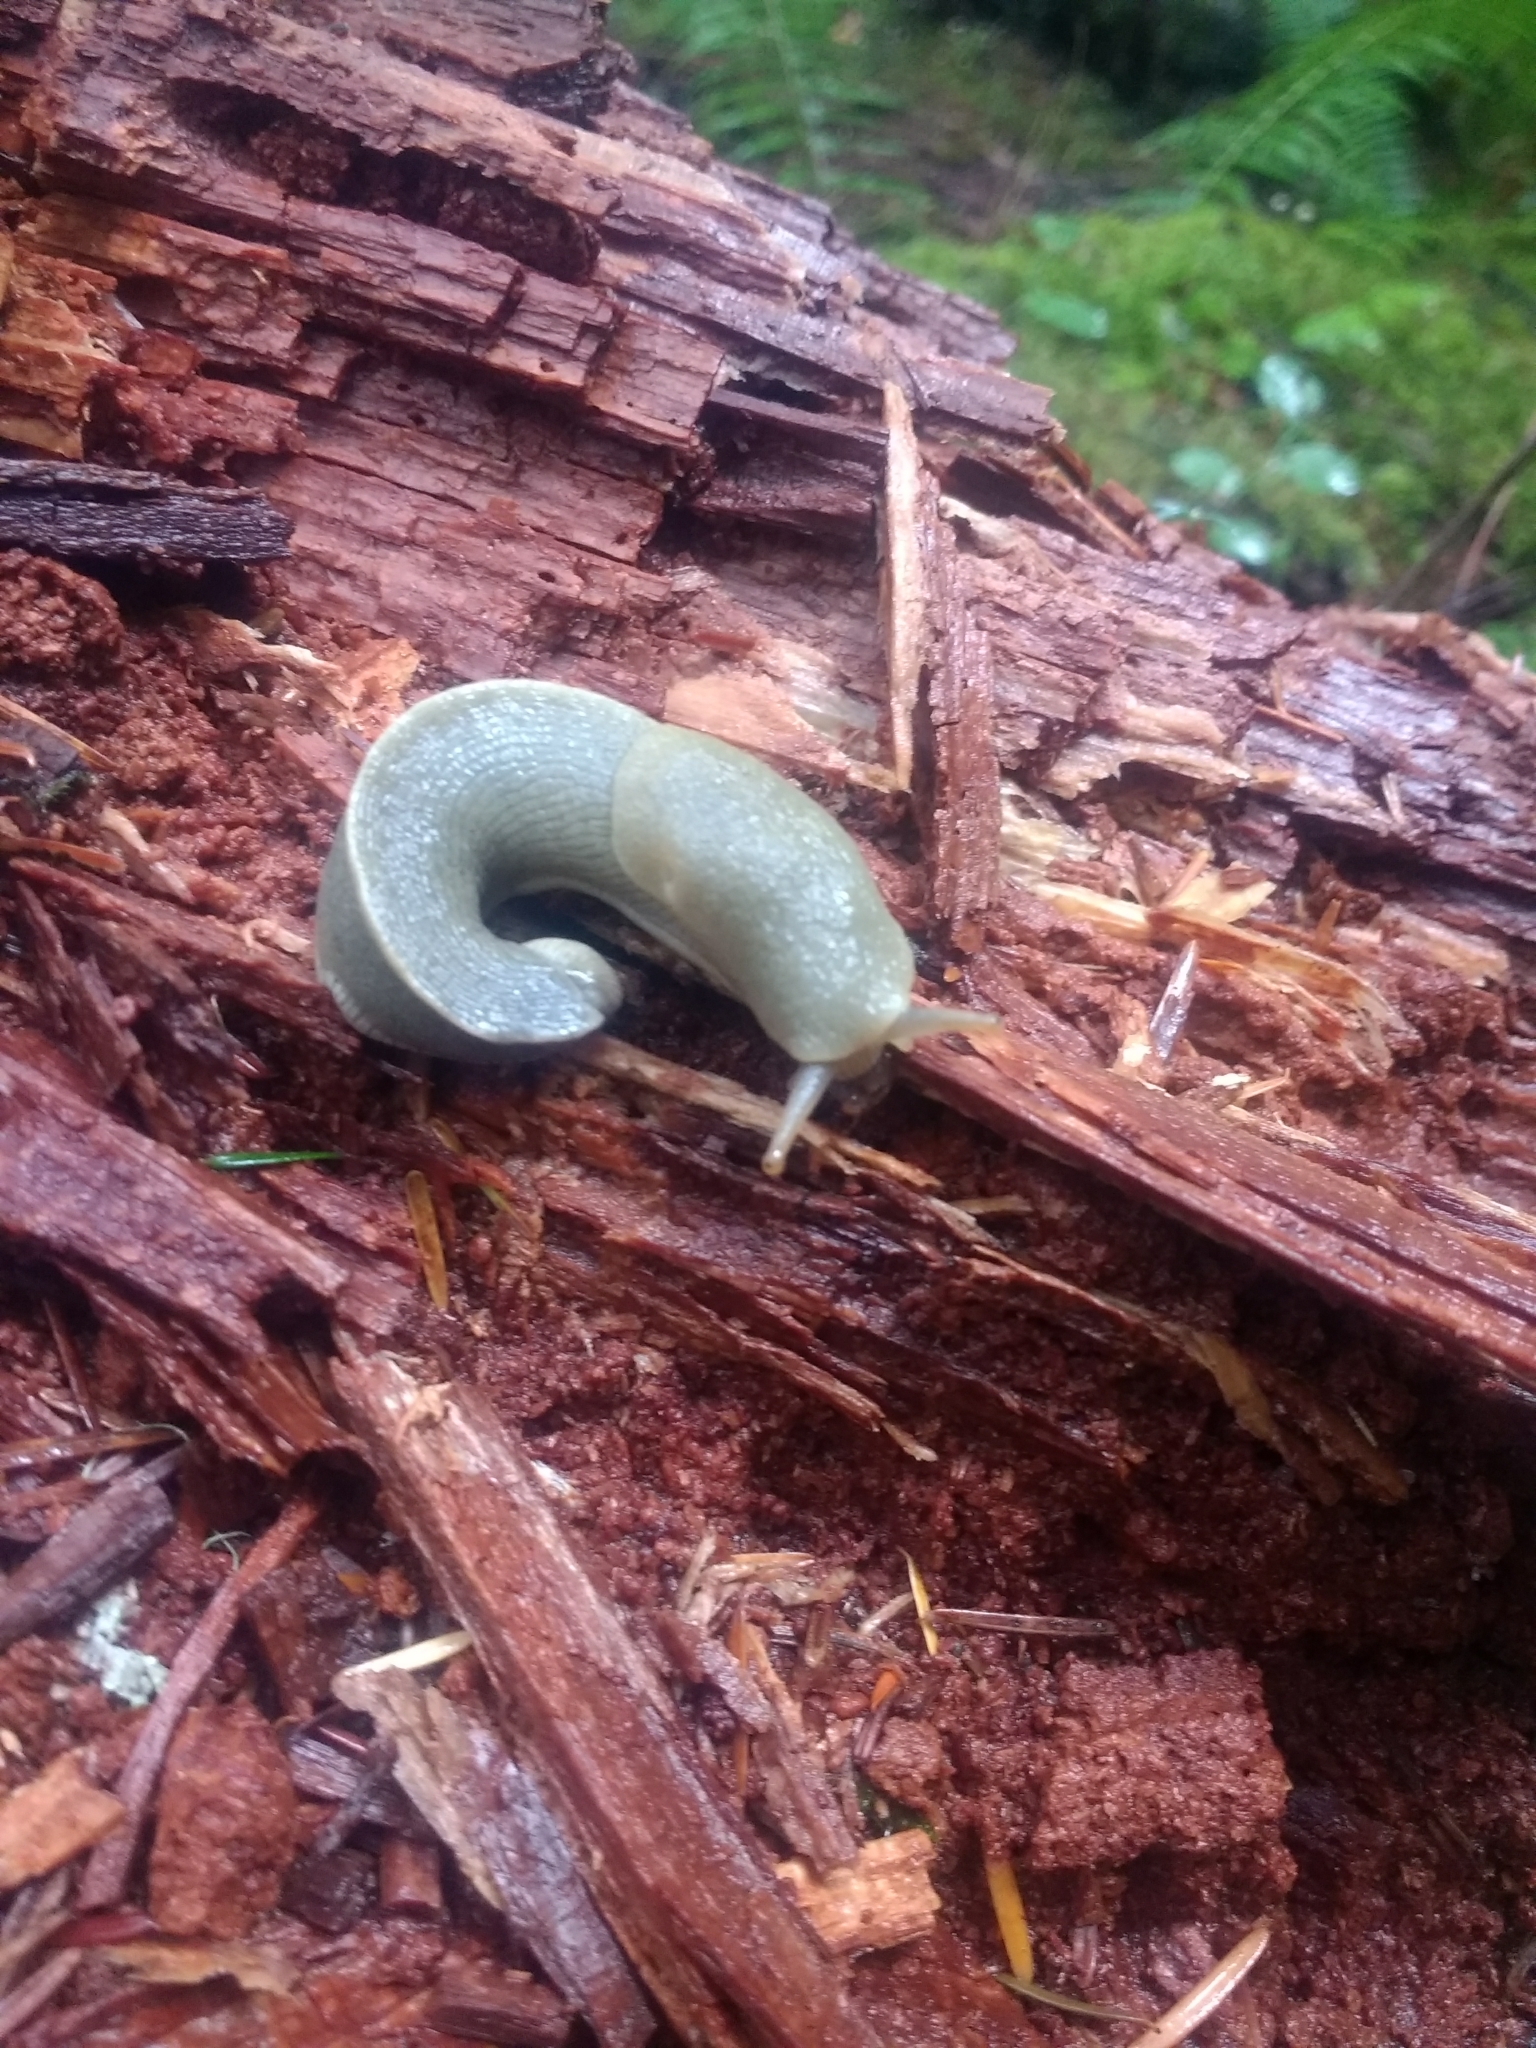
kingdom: Animalia
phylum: Mollusca
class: Gastropoda
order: Stylommatophora
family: Ariolimacidae
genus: Ariolimax
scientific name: Ariolimax columbianus
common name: Pacific banana slug
